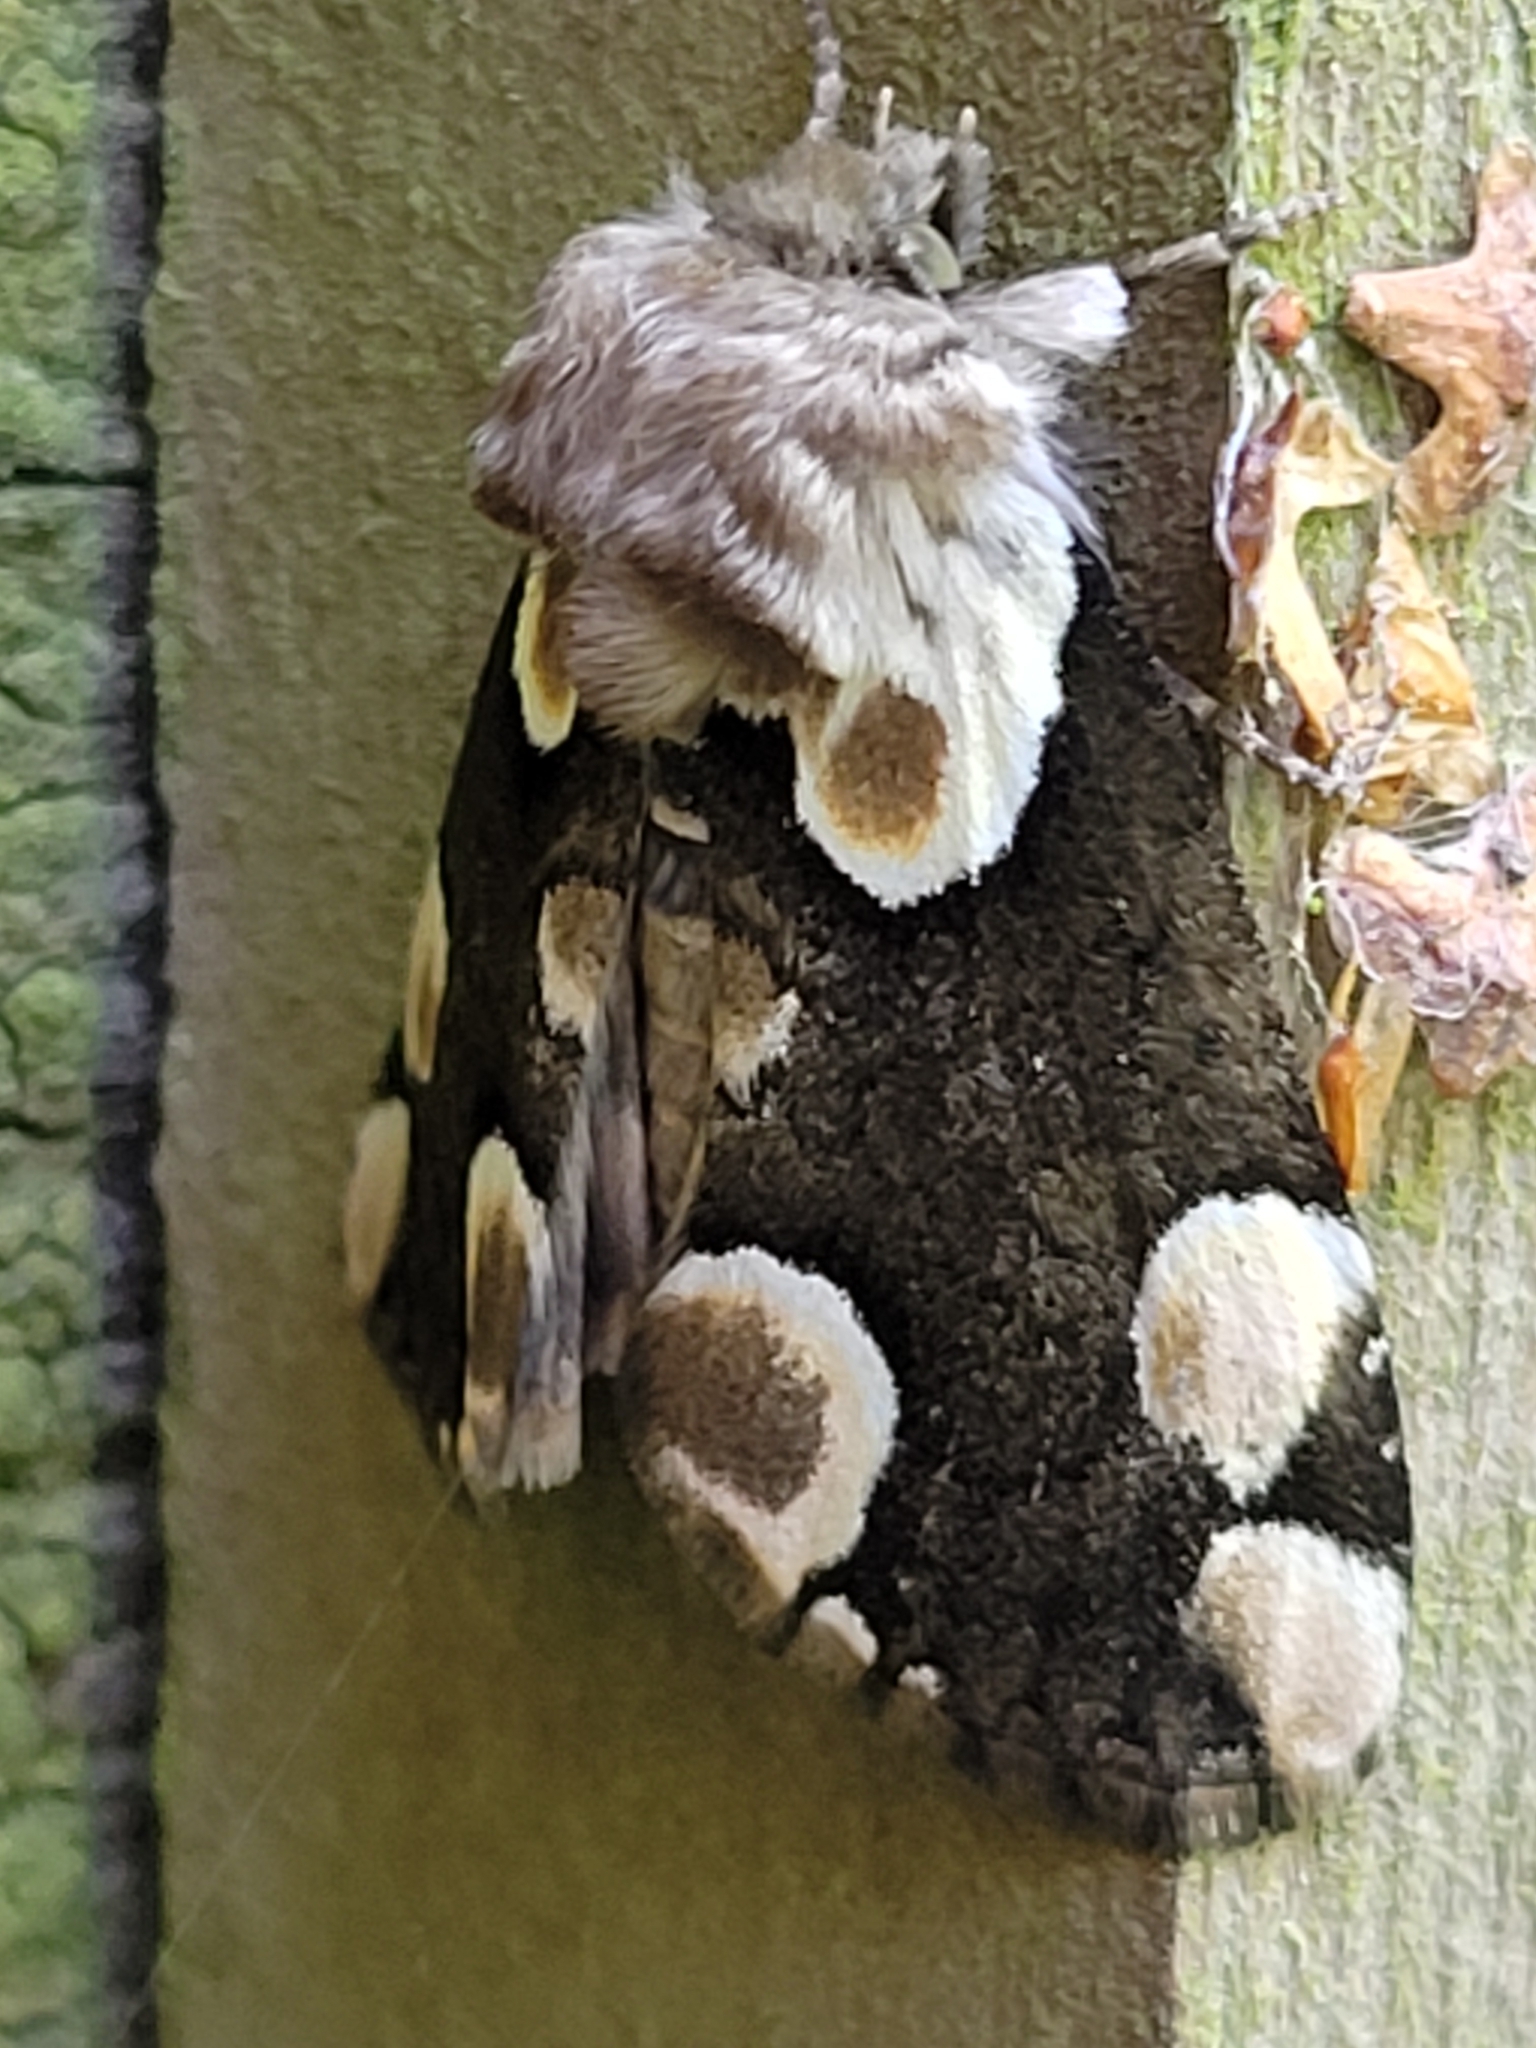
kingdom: Animalia
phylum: Arthropoda
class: Insecta
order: Lepidoptera
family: Drepanidae
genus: Thyatira
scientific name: Thyatira batis
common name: Peach blossom
